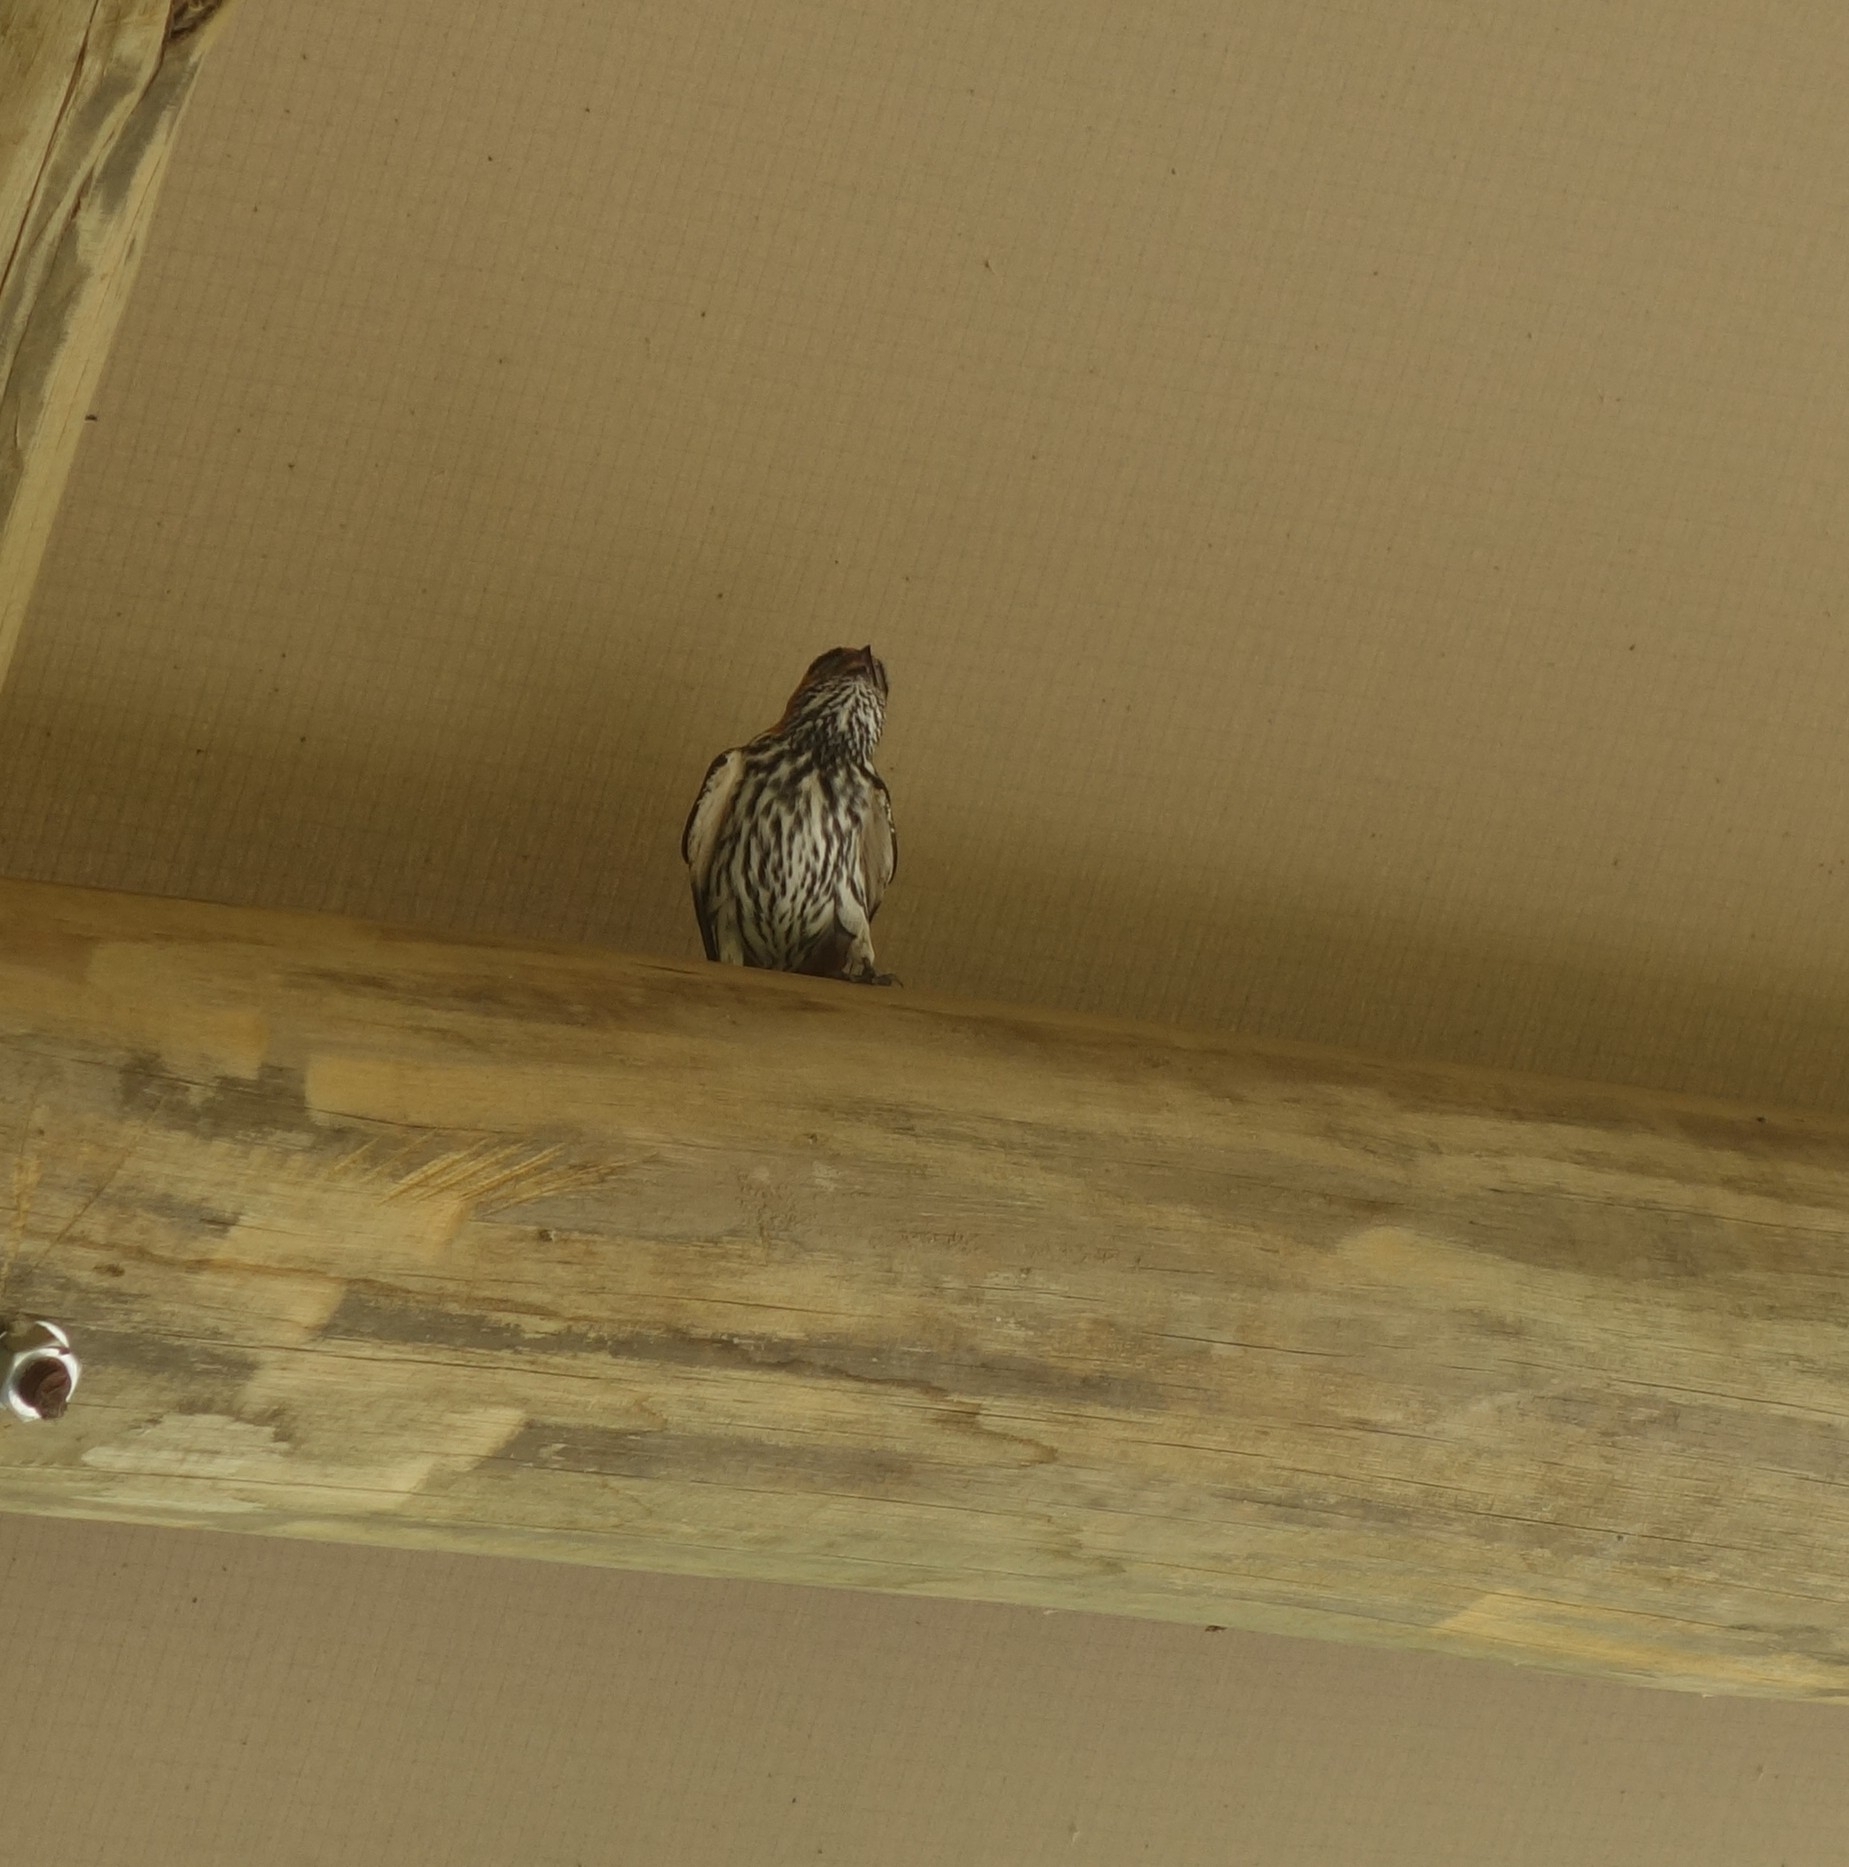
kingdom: Animalia
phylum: Chordata
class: Aves
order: Passeriformes
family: Hirundinidae
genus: Cecropis
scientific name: Cecropis abyssinica
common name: Lesser striped-swallow
